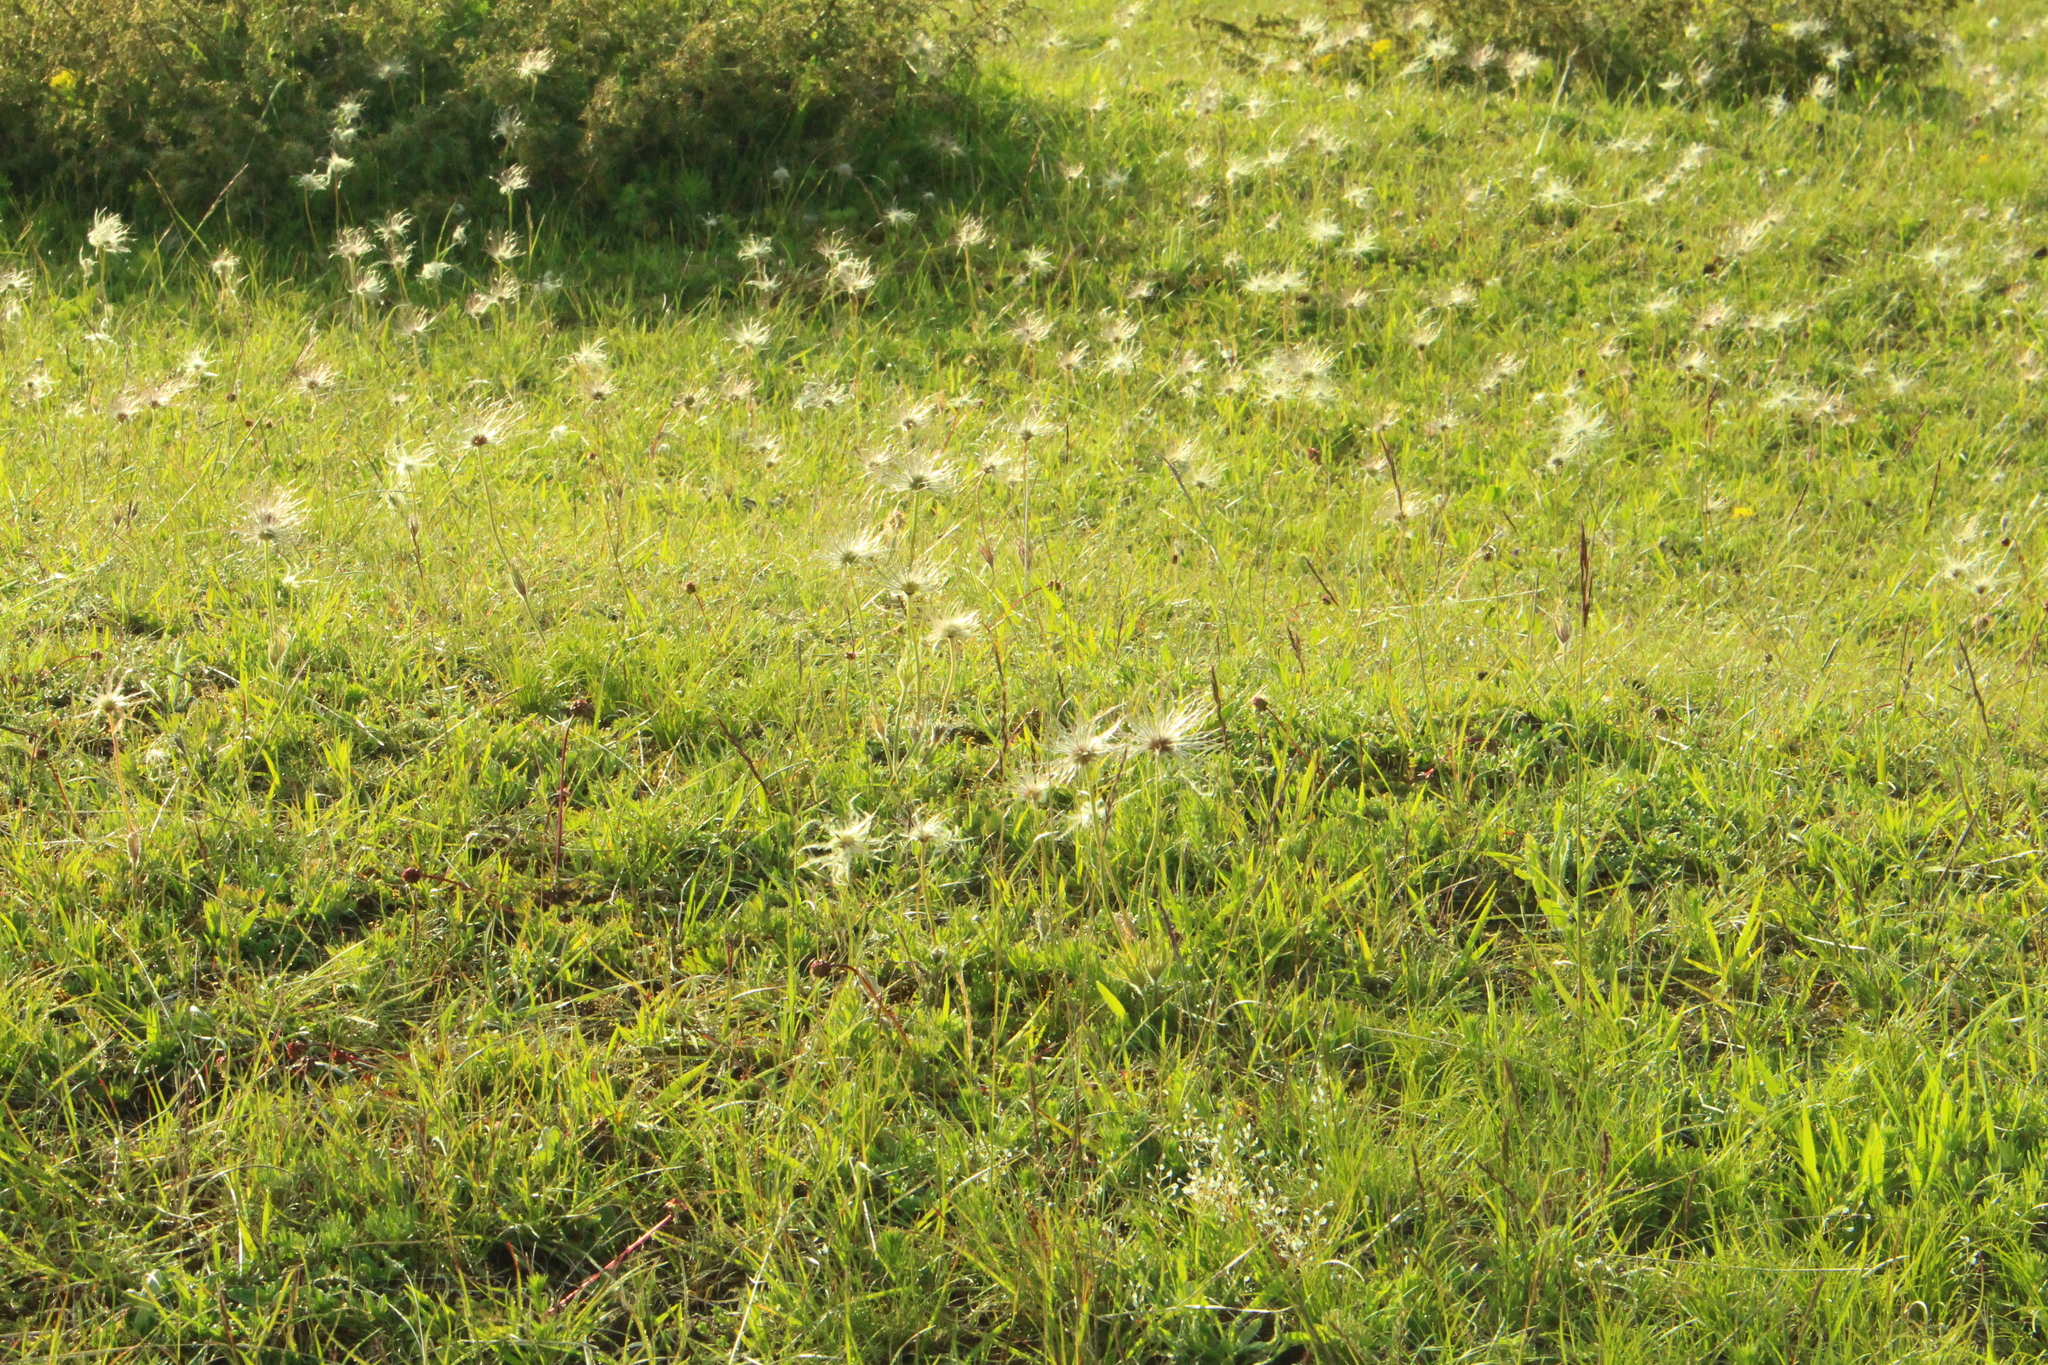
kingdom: Plantae
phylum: Tracheophyta
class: Magnoliopsida
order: Ranunculales
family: Ranunculaceae
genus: Pulsatilla
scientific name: Pulsatilla vulgaris
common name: Pasqueflower
